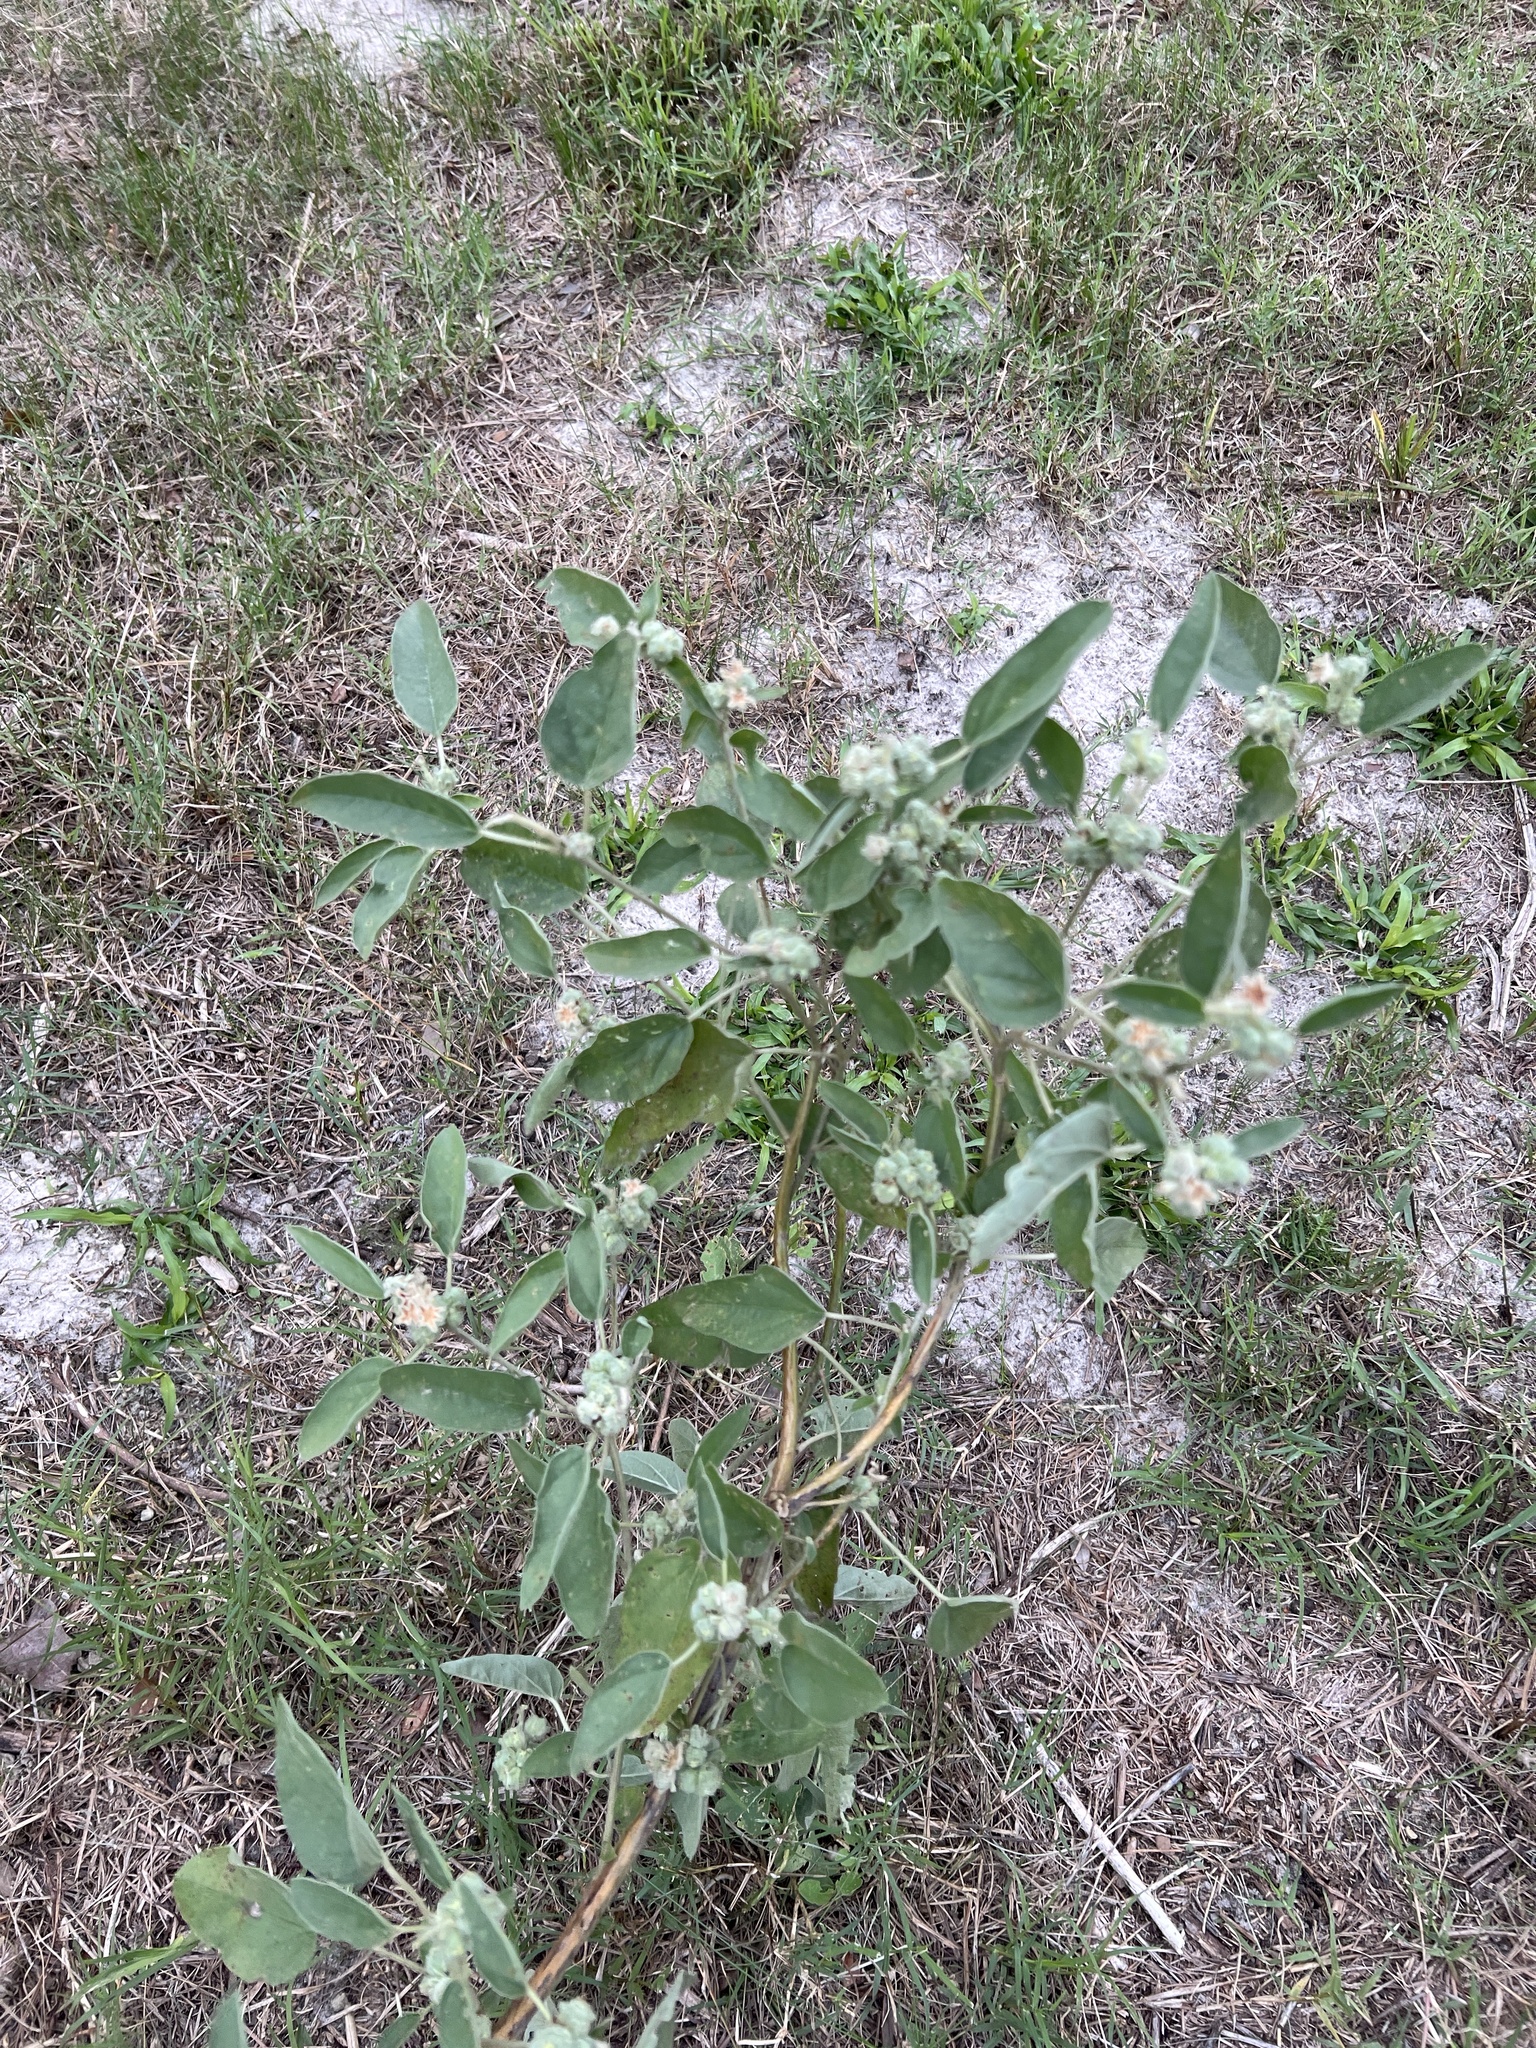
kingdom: Plantae
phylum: Tracheophyta
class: Magnoliopsida
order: Malpighiales
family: Euphorbiaceae
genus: Croton
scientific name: Croton heptalon
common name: Woolly croton
